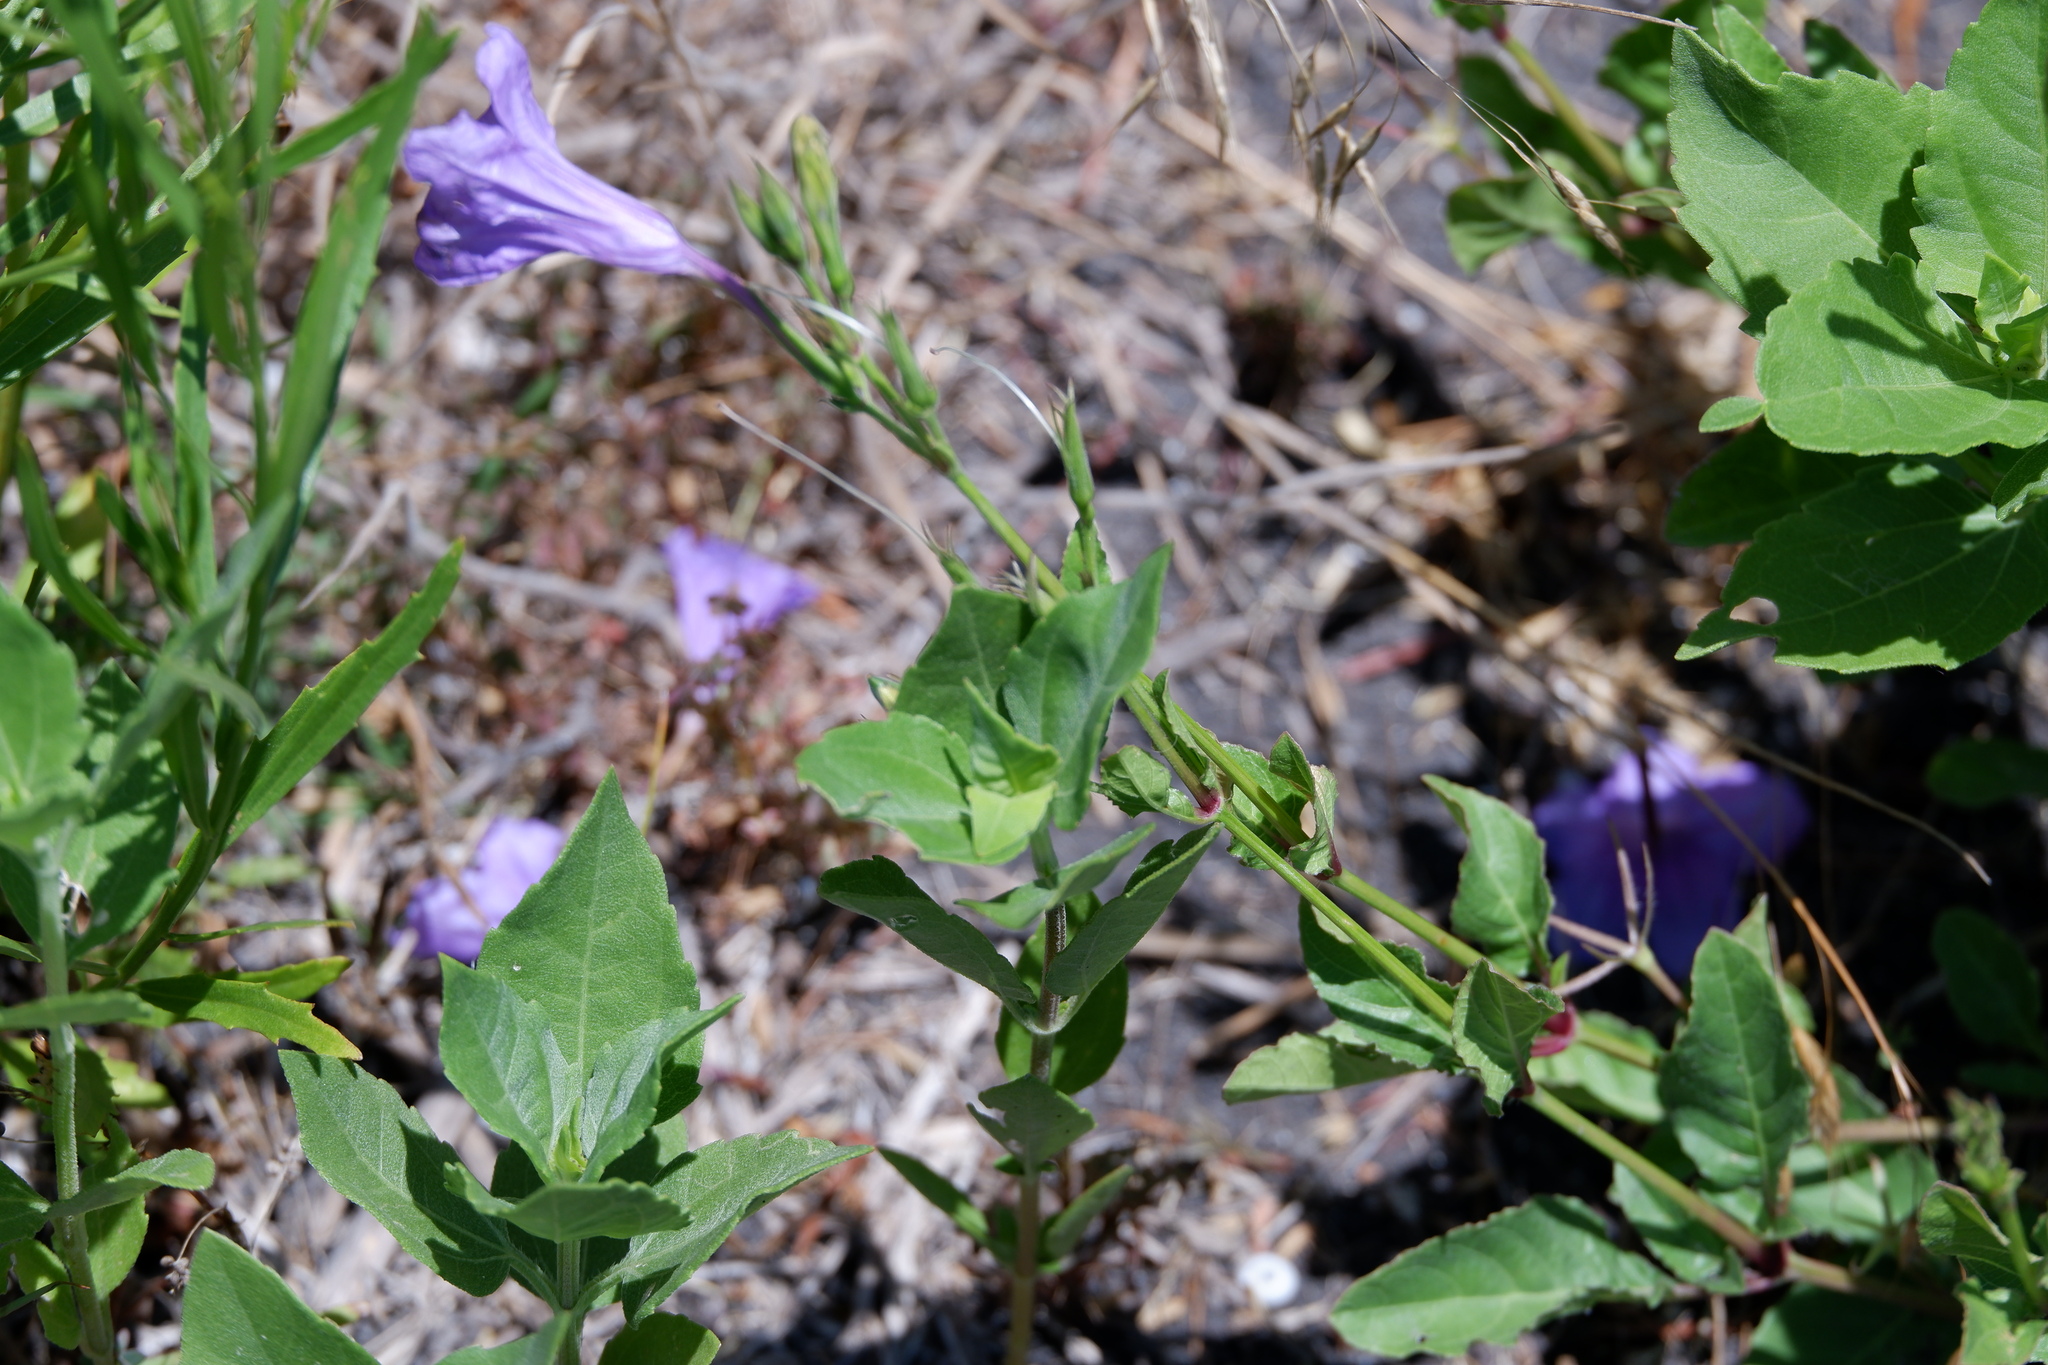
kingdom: Plantae
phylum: Tracheophyta
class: Magnoliopsida
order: Lamiales
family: Acanthaceae
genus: Ruellia
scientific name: Ruellia ciliatiflora
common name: Hairyflower wild petunia
